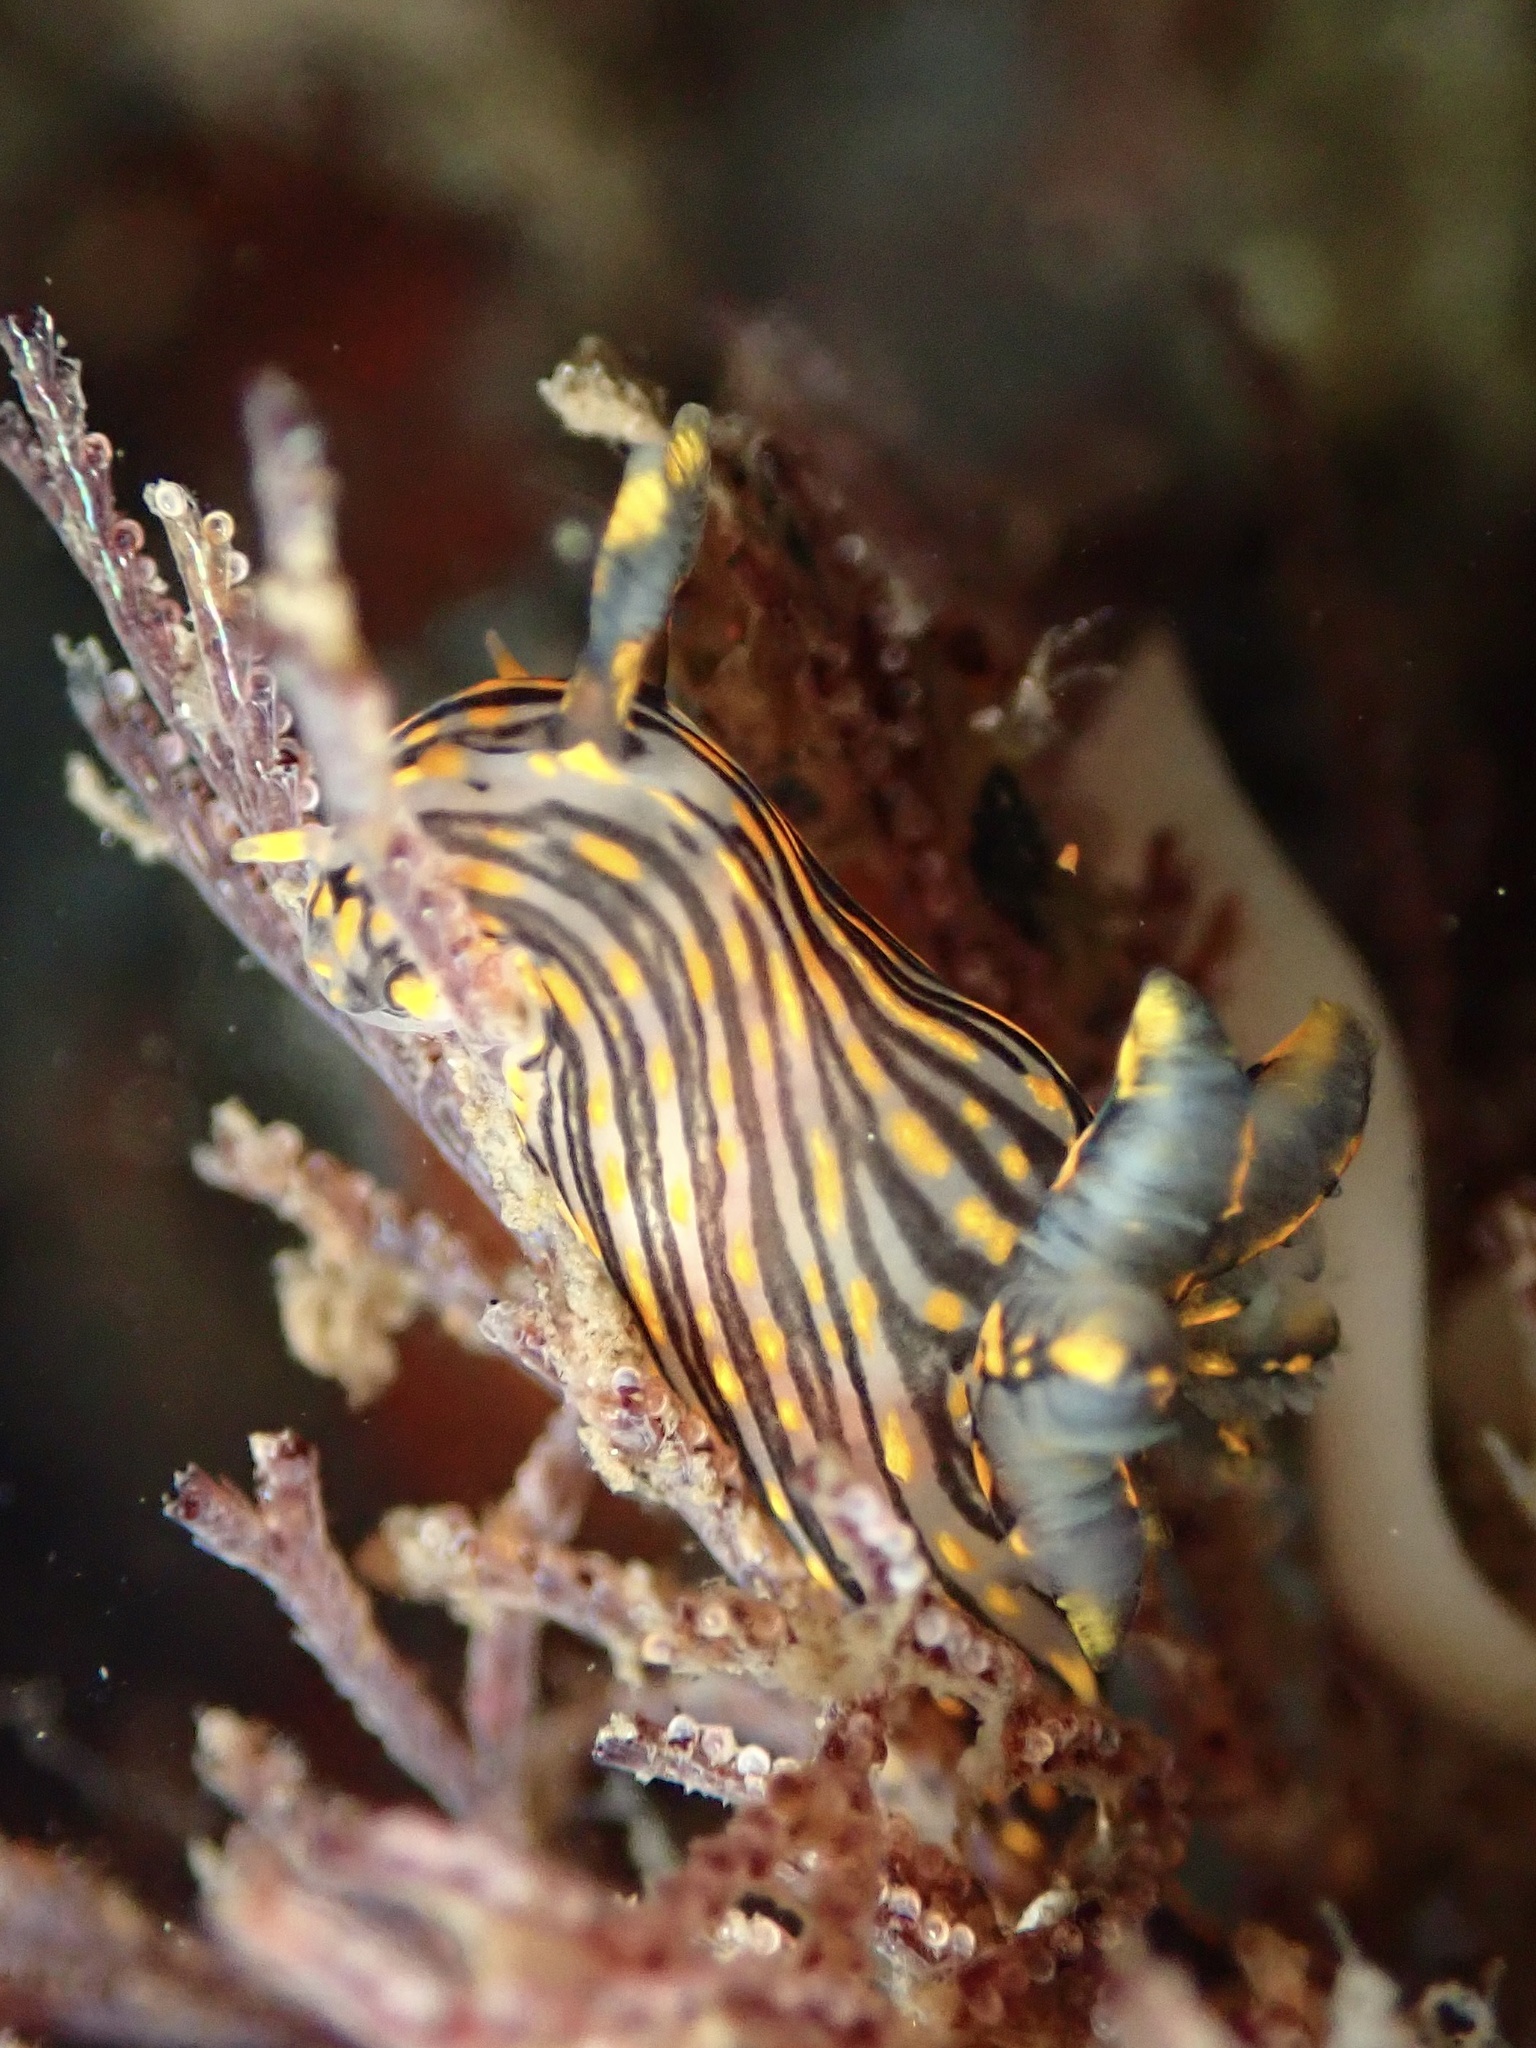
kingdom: Animalia
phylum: Mollusca
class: Gastropoda
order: Nudibranchia
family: Polyceridae
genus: Polycera
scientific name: Polycera atra
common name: Orange-spike polycera
